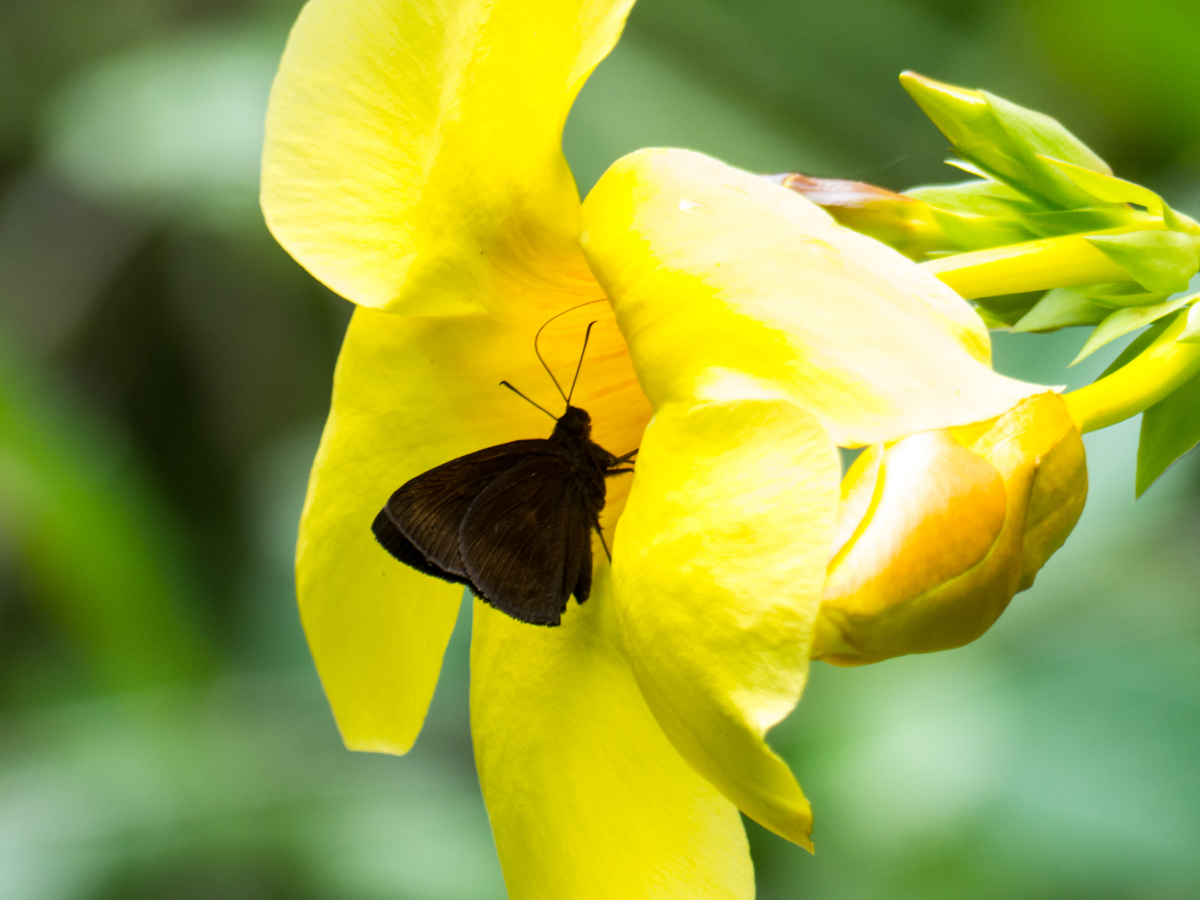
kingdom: Animalia
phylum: Arthropoda
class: Insecta
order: Lepidoptera
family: Hesperiidae
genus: Ancistroides
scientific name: Ancistroides nigrita
